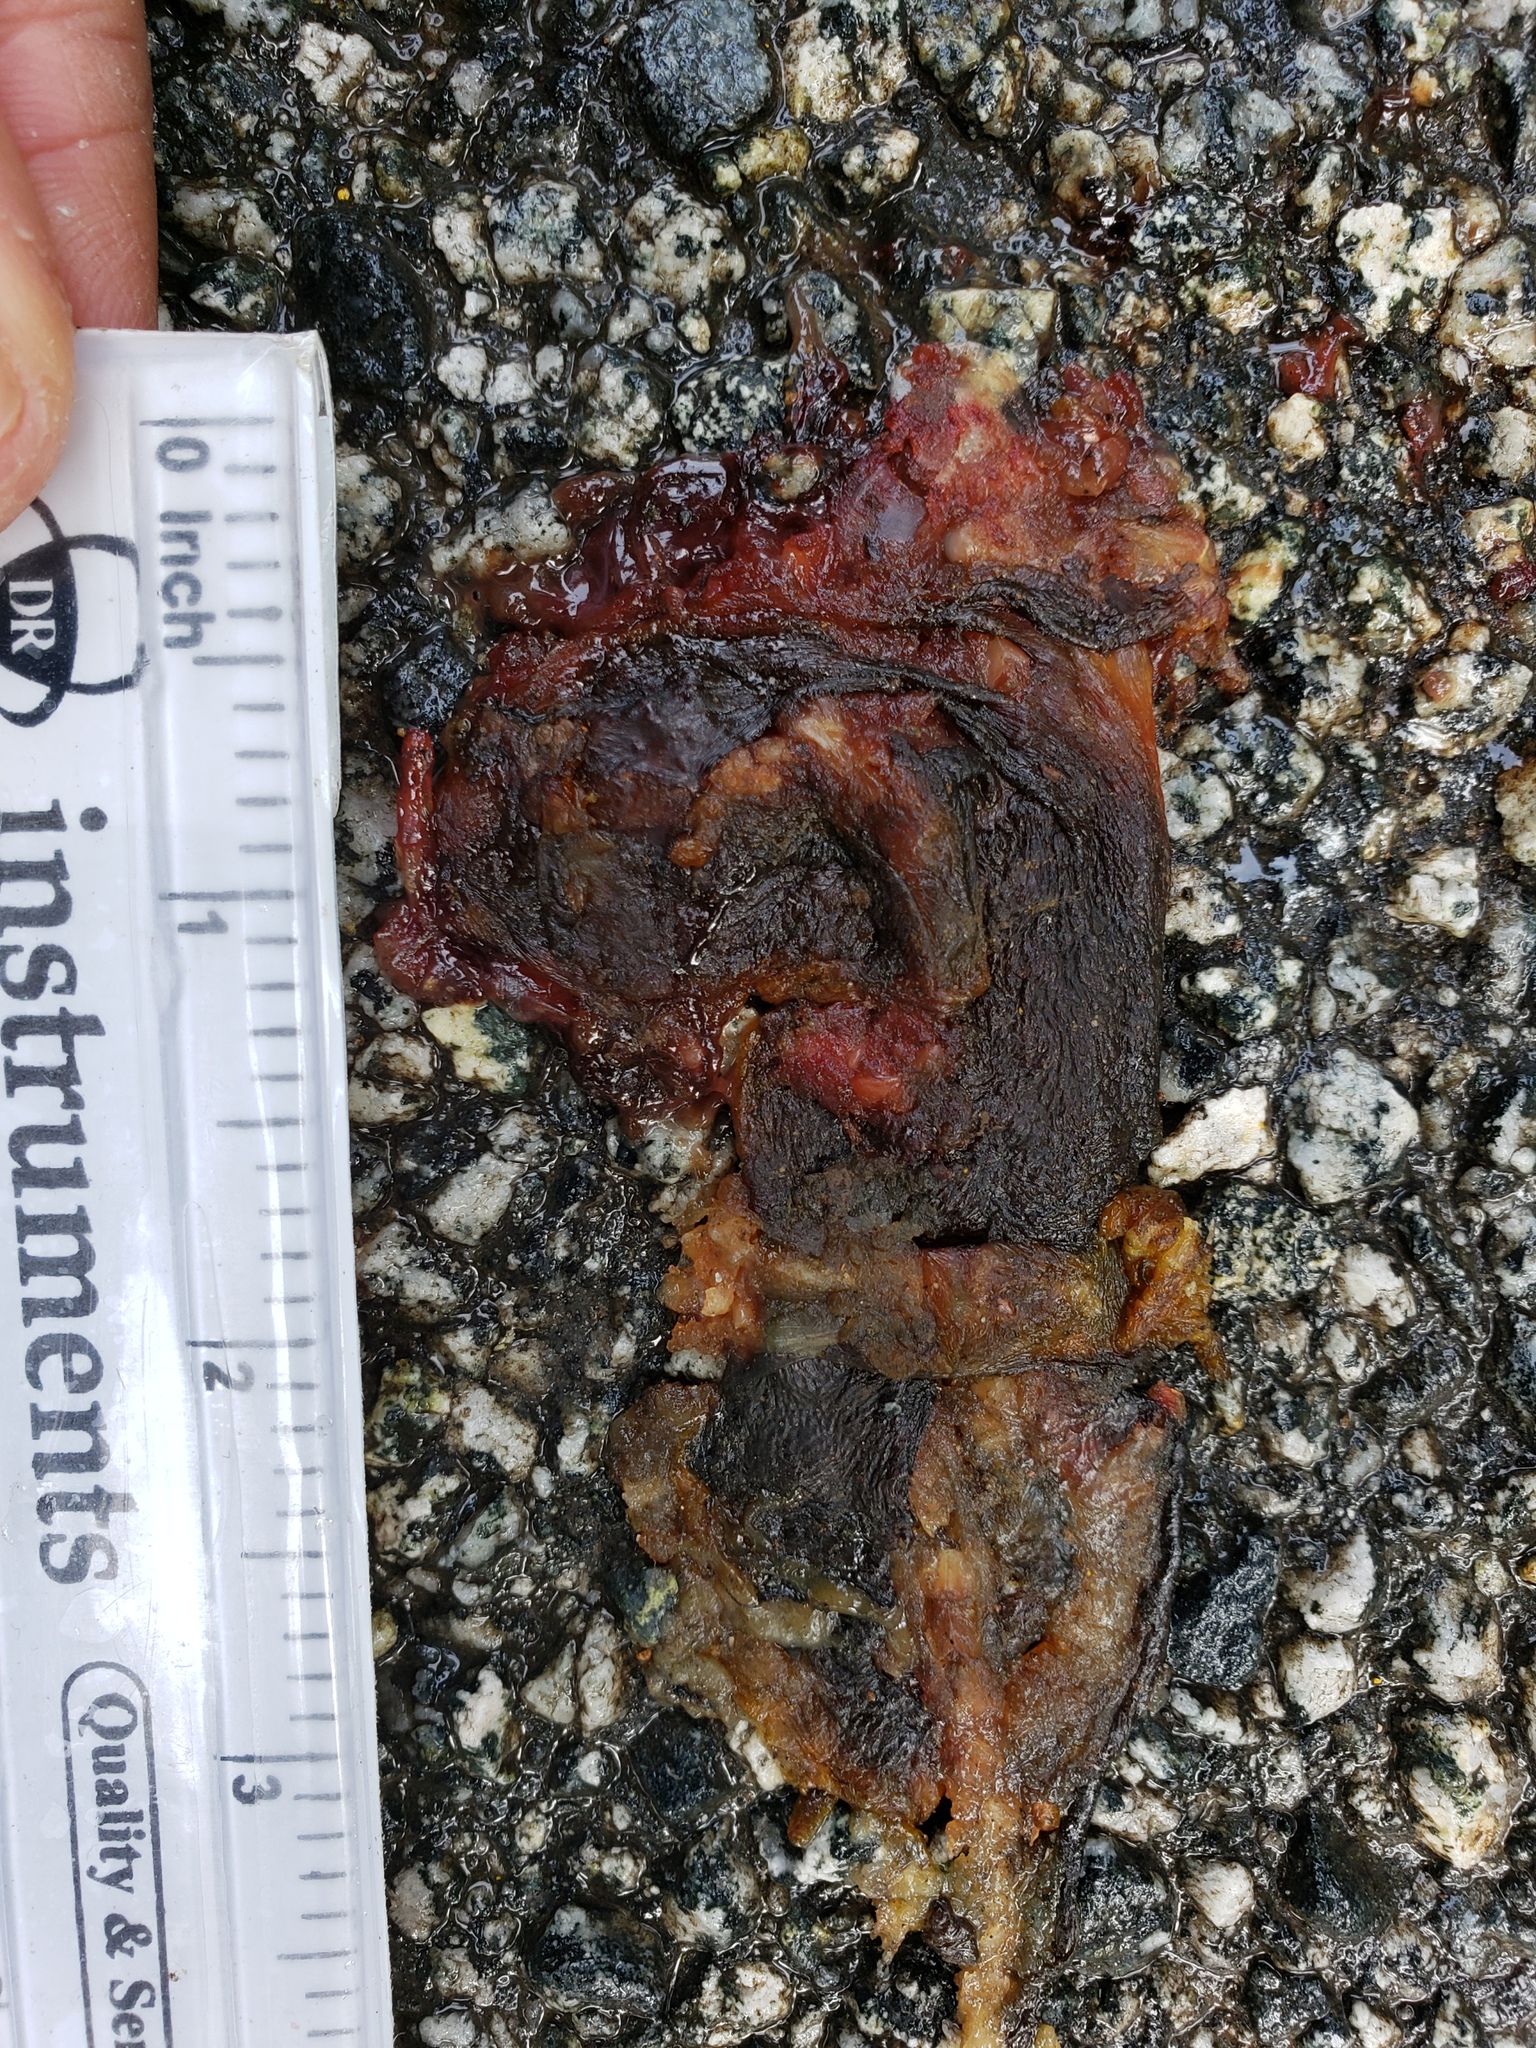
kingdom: Animalia
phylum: Chordata
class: Amphibia
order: Caudata
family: Salamandridae
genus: Taricha
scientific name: Taricha
